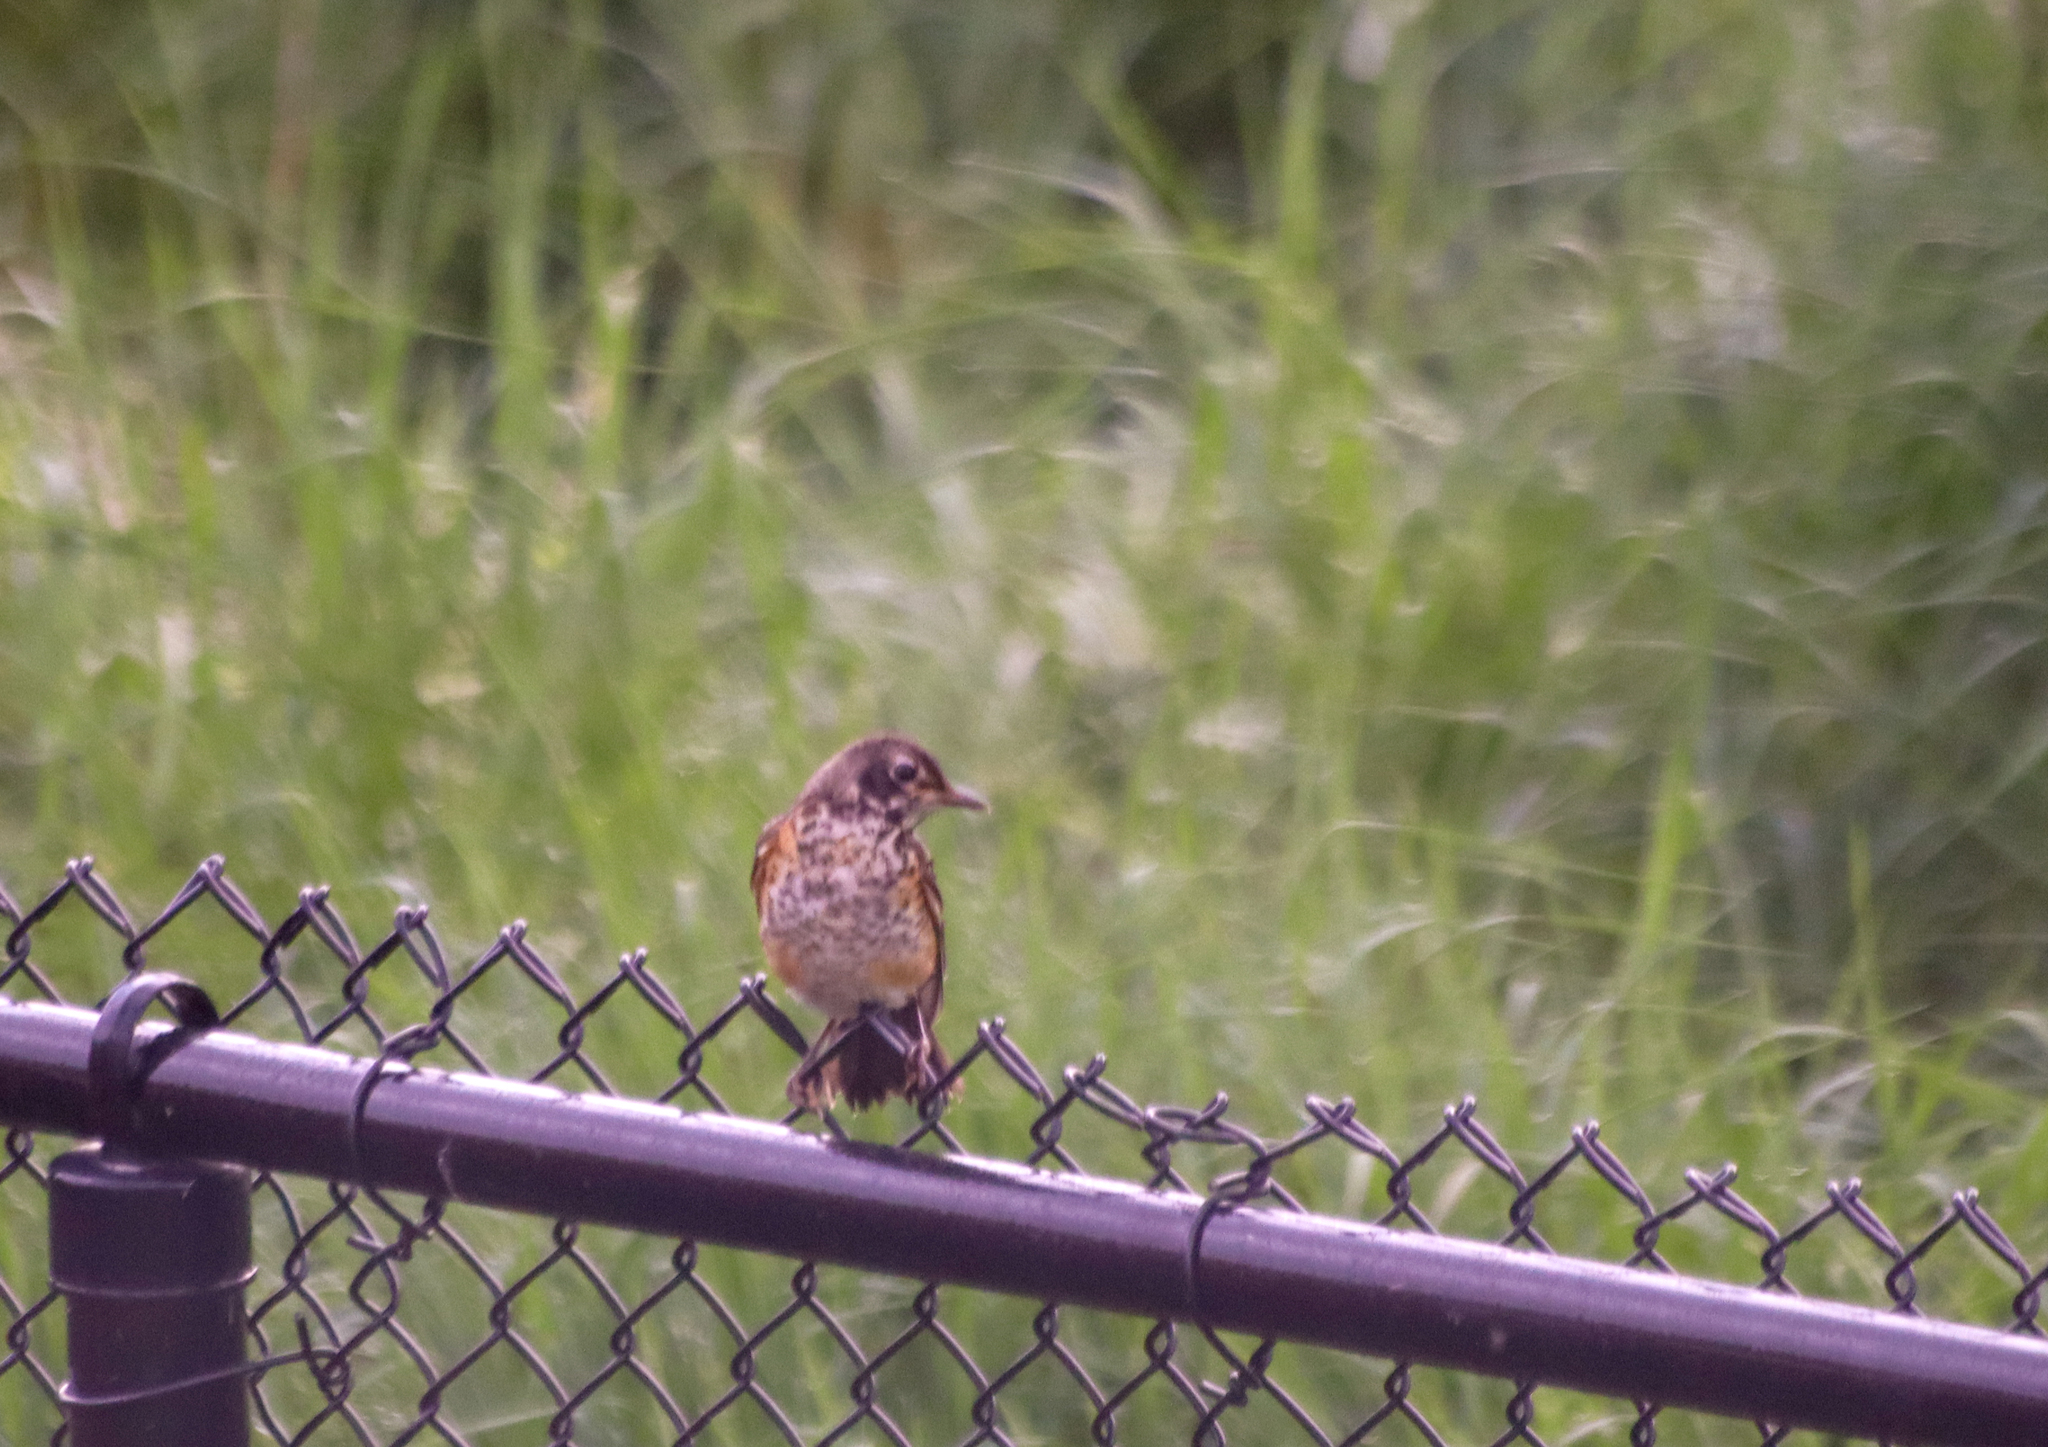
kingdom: Animalia
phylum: Chordata
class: Aves
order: Passeriformes
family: Turdidae
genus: Turdus
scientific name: Turdus migratorius
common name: American robin
